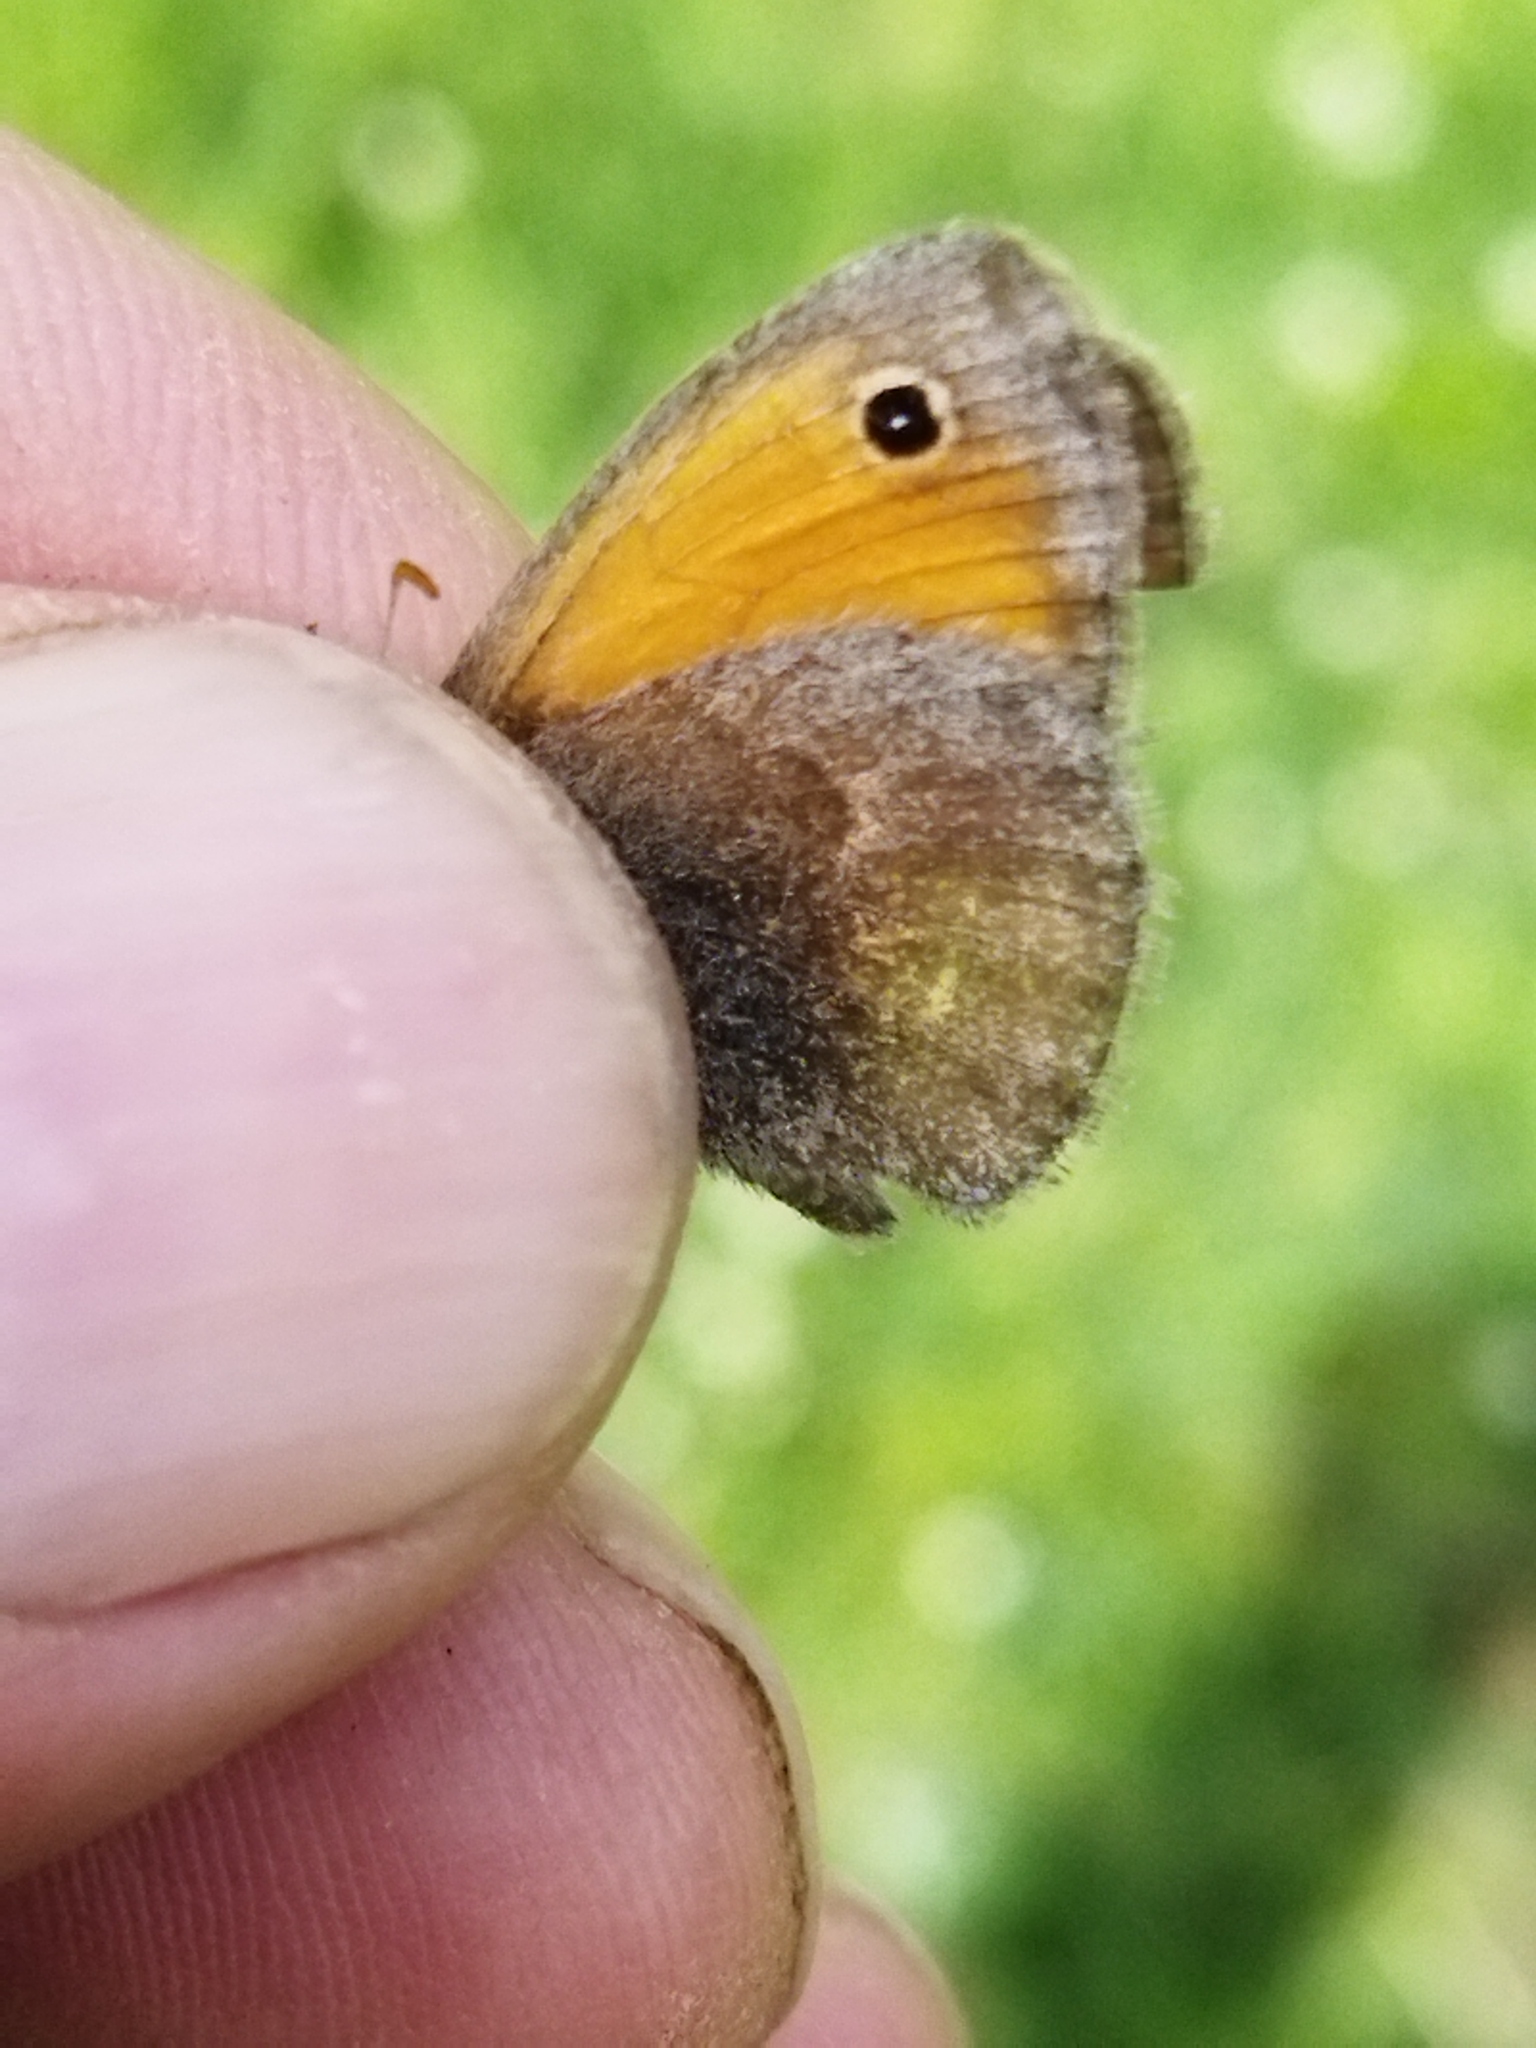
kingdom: Animalia
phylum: Arthropoda
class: Insecta
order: Lepidoptera
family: Nymphalidae
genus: Coenonympha
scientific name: Coenonympha pamphilus
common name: Small heath
